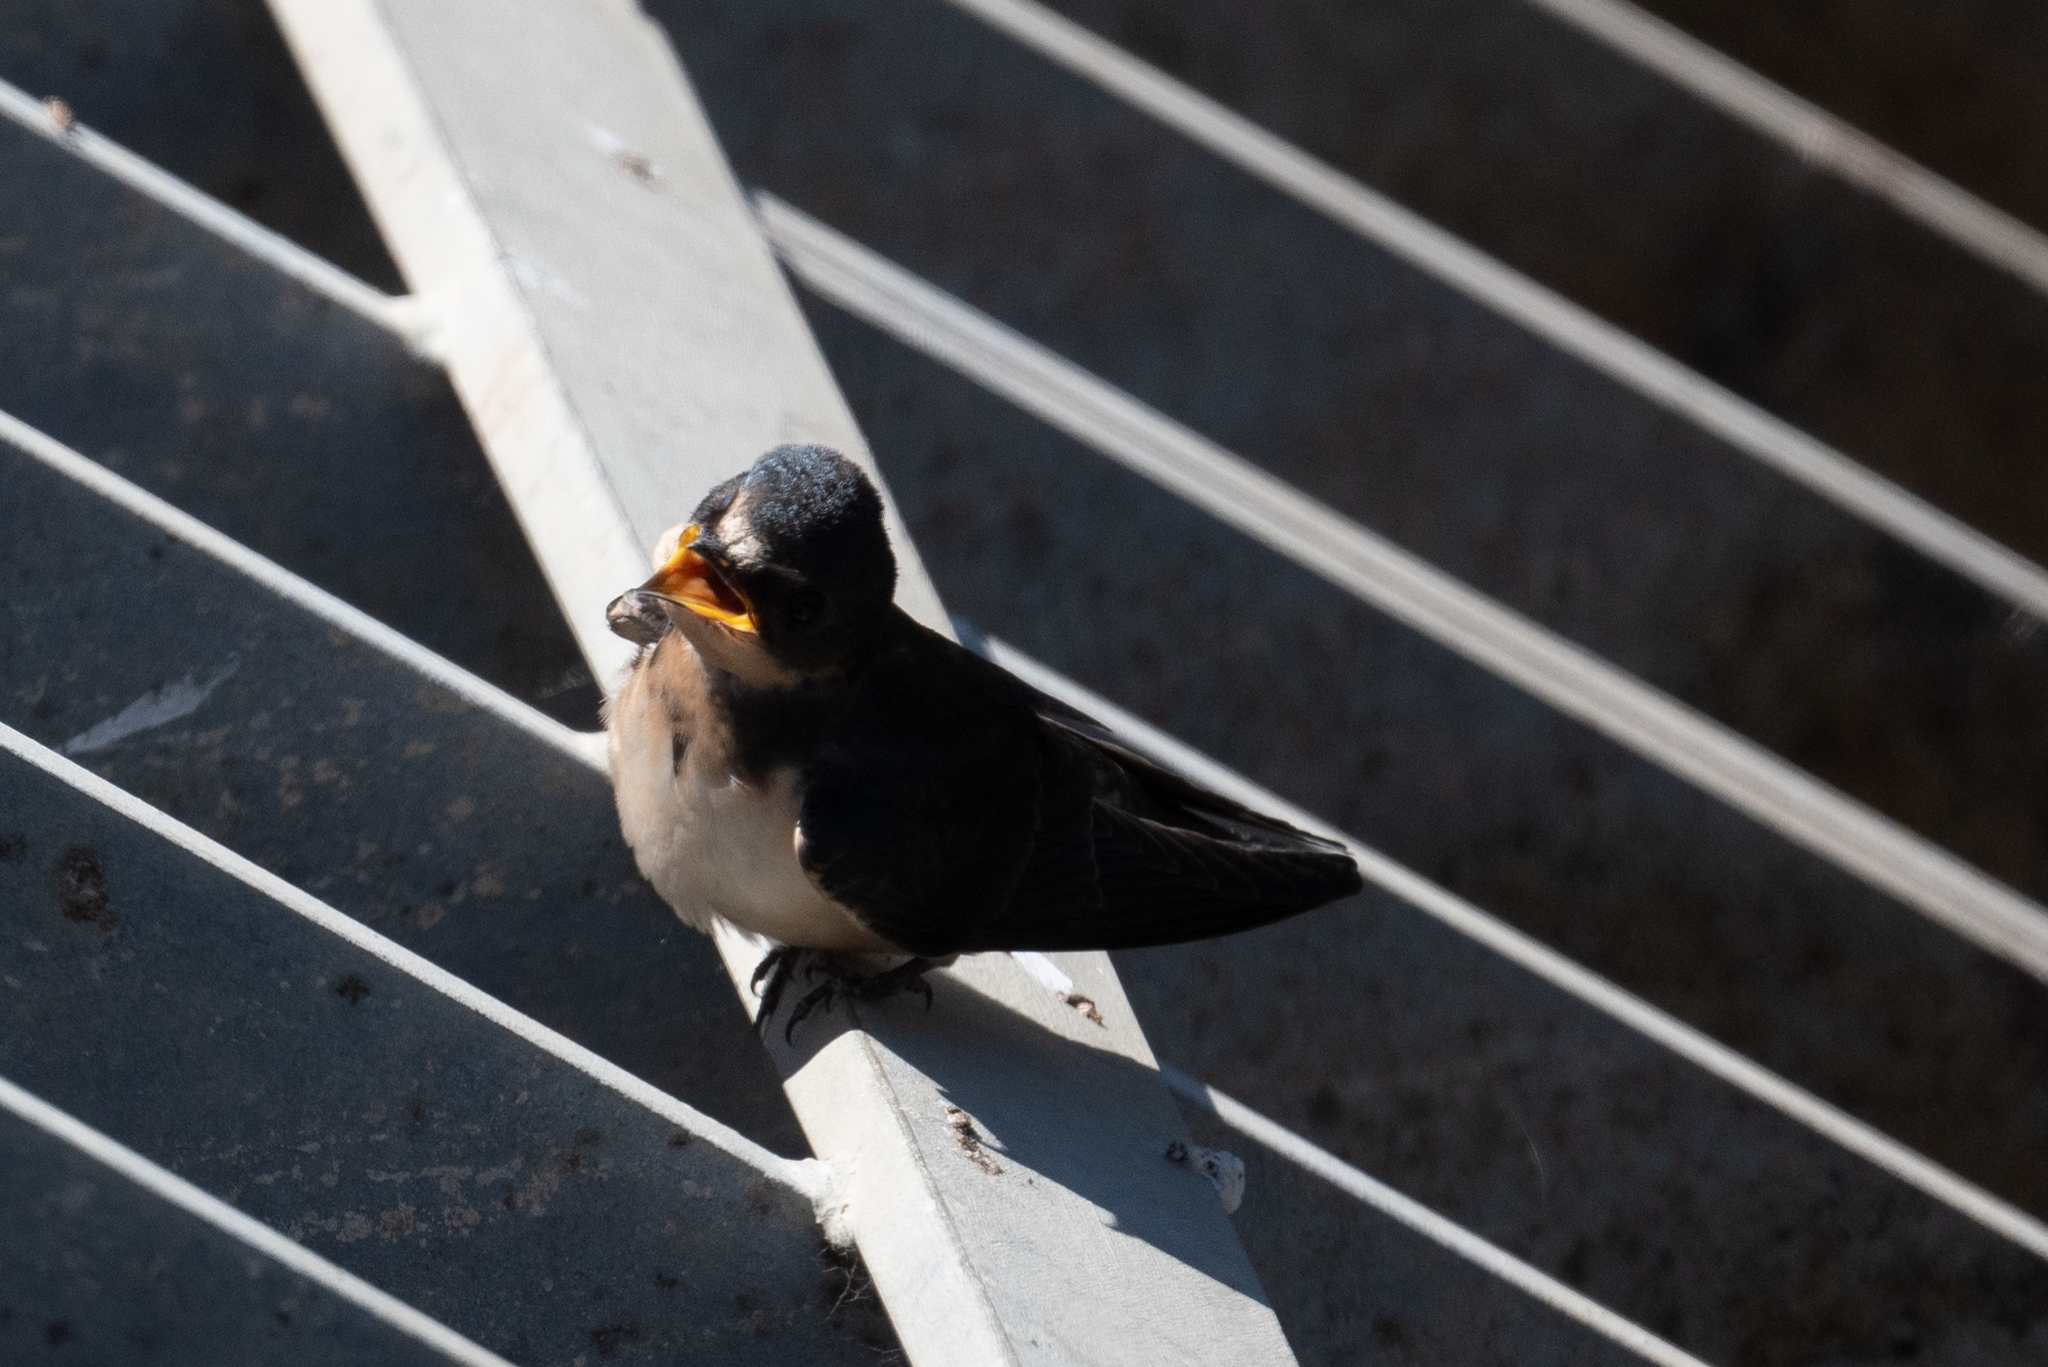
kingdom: Animalia
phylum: Chordata
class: Aves
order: Passeriformes
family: Hirundinidae
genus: Hirundo
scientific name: Hirundo rustica
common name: Barn swallow
